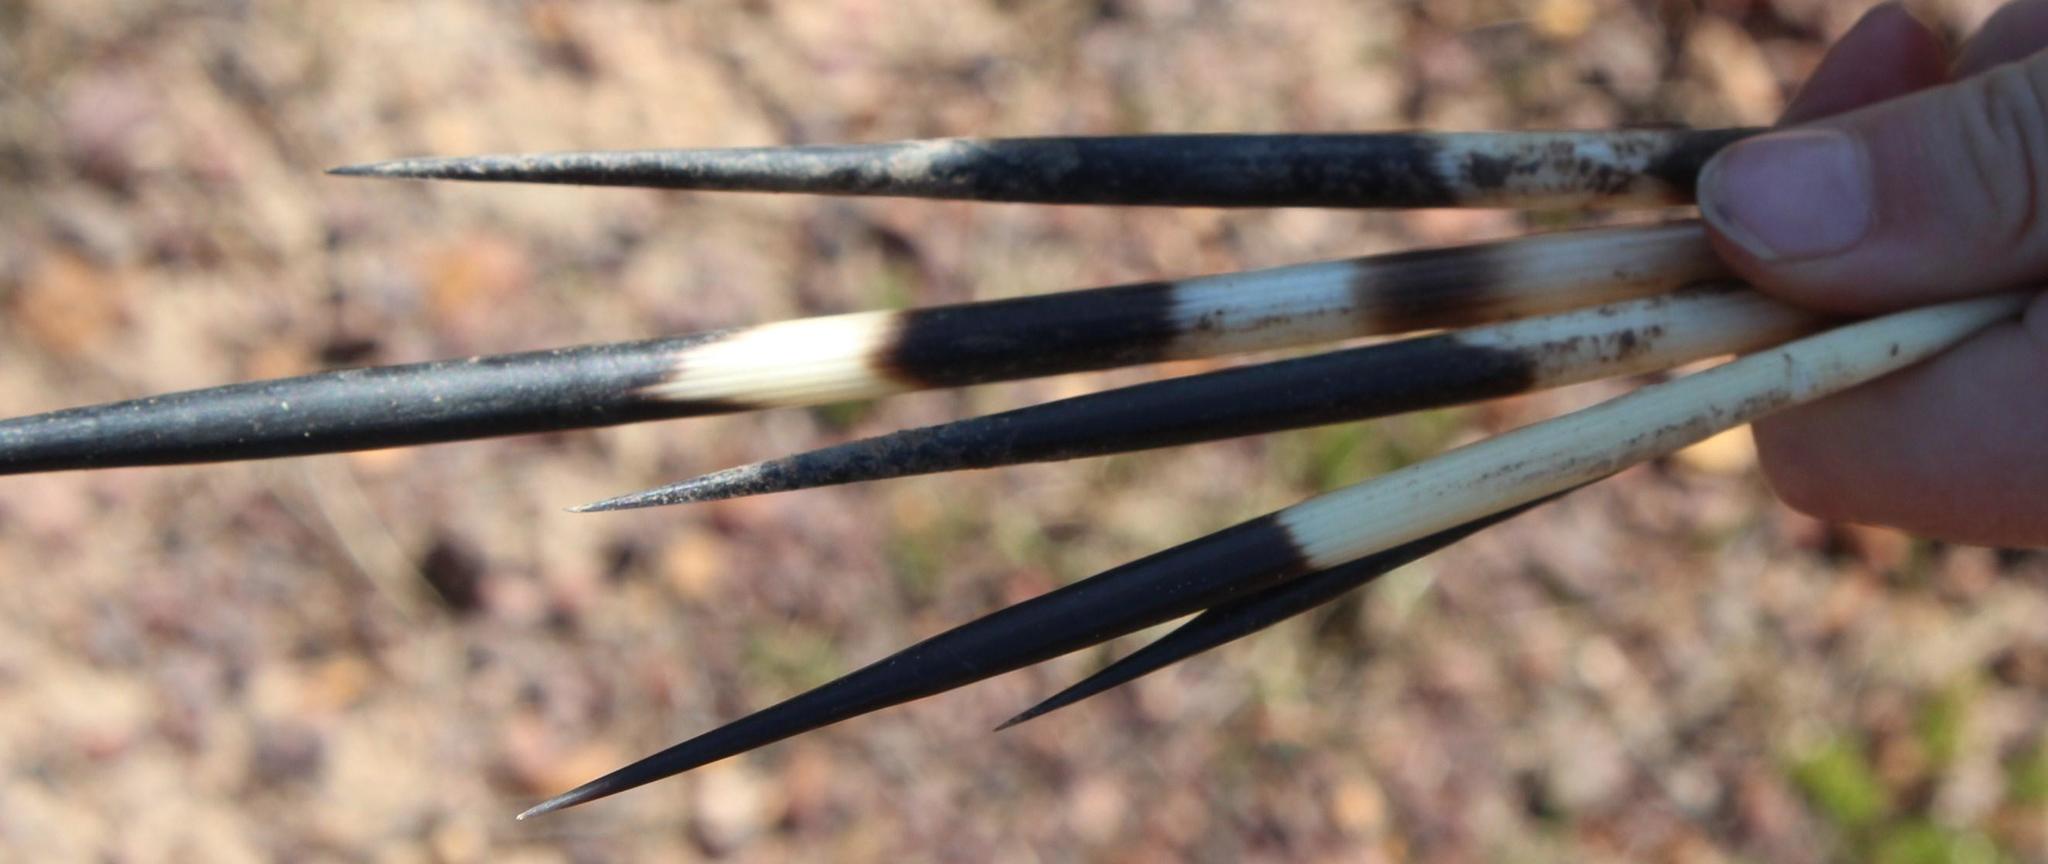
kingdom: Animalia
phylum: Chordata
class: Mammalia
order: Rodentia
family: Hystricidae
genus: Hystrix
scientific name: Hystrix africaeaustralis
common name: Cape porcupine
